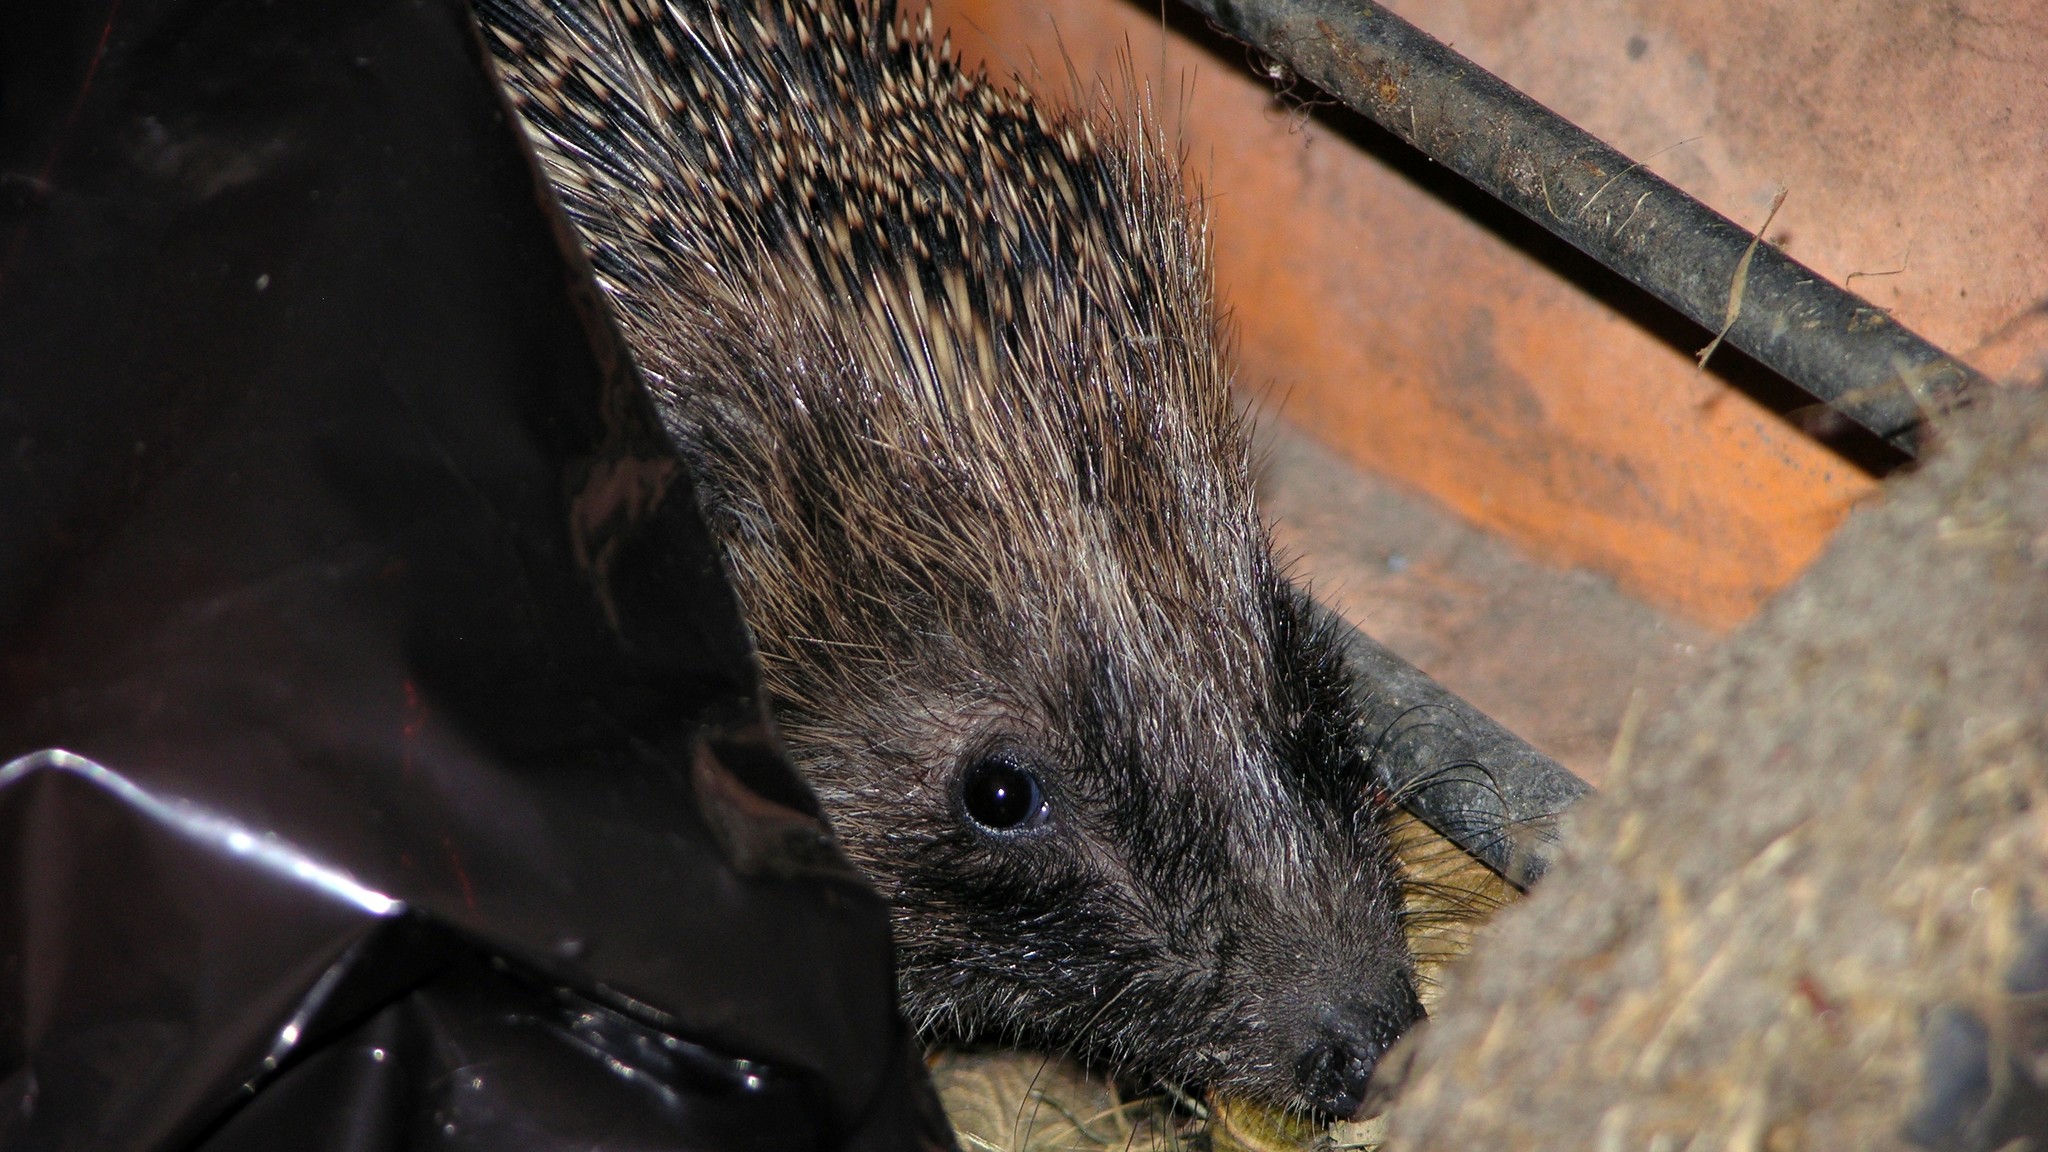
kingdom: Animalia
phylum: Chordata
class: Mammalia
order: Erinaceomorpha
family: Erinaceidae
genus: Erinaceus
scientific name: Erinaceus europaeus
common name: West european hedgehog
